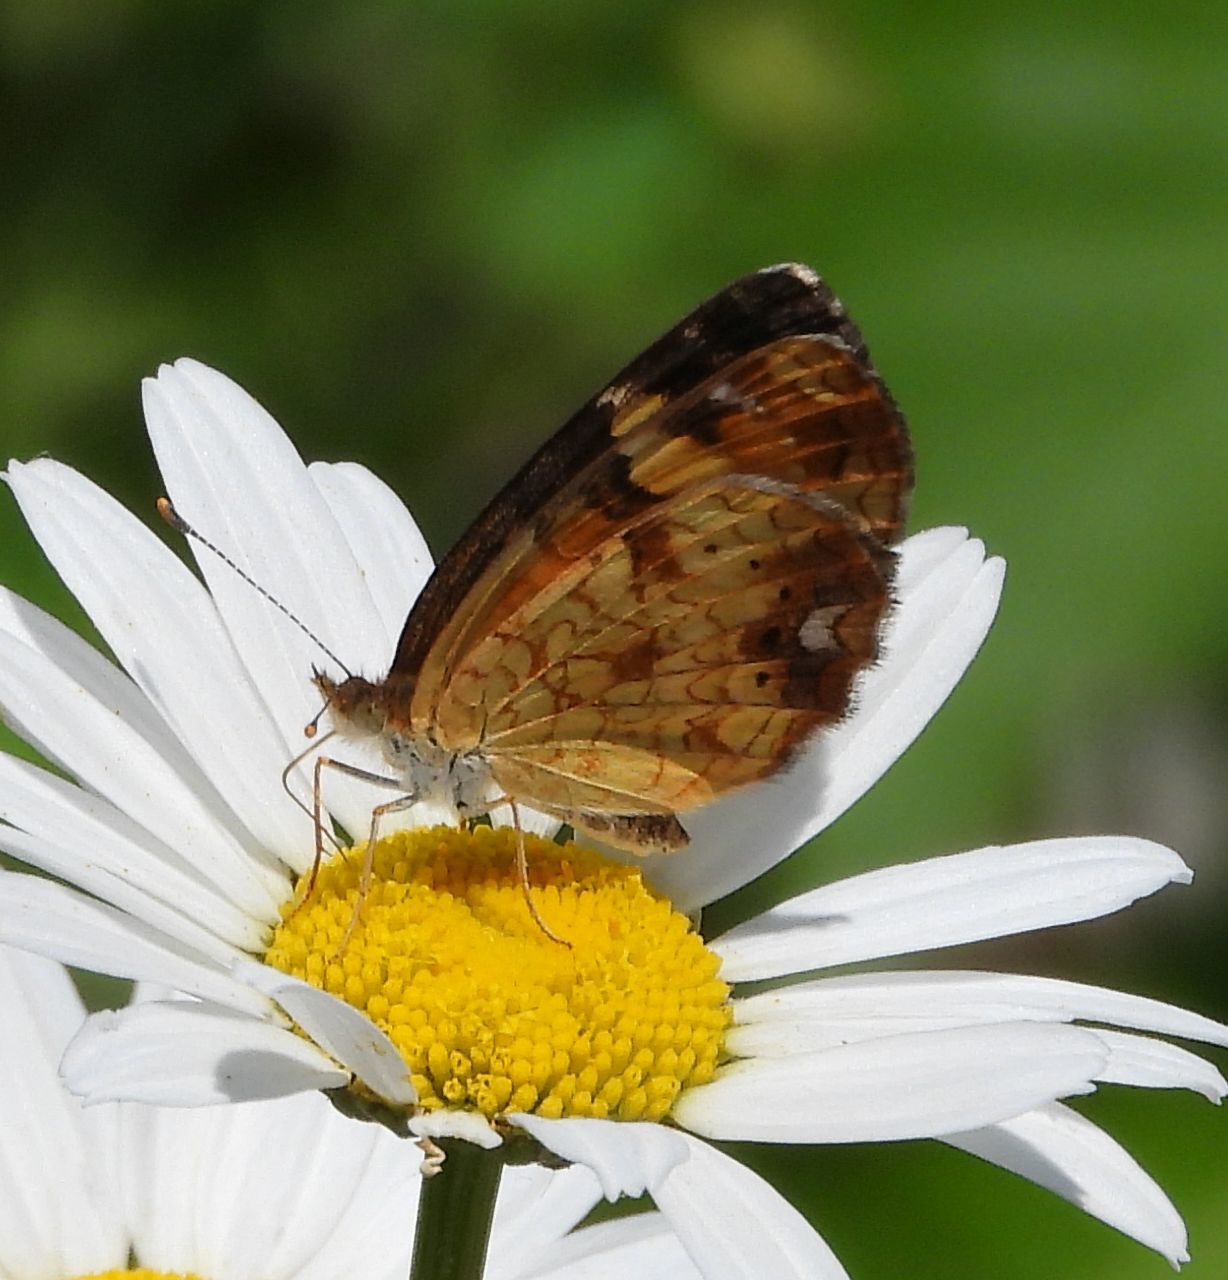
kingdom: Animalia
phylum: Arthropoda
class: Insecta
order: Lepidoptera
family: Nymphalidae
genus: Phyciodes
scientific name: Phyciodes tharos
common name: Pearl crescent
